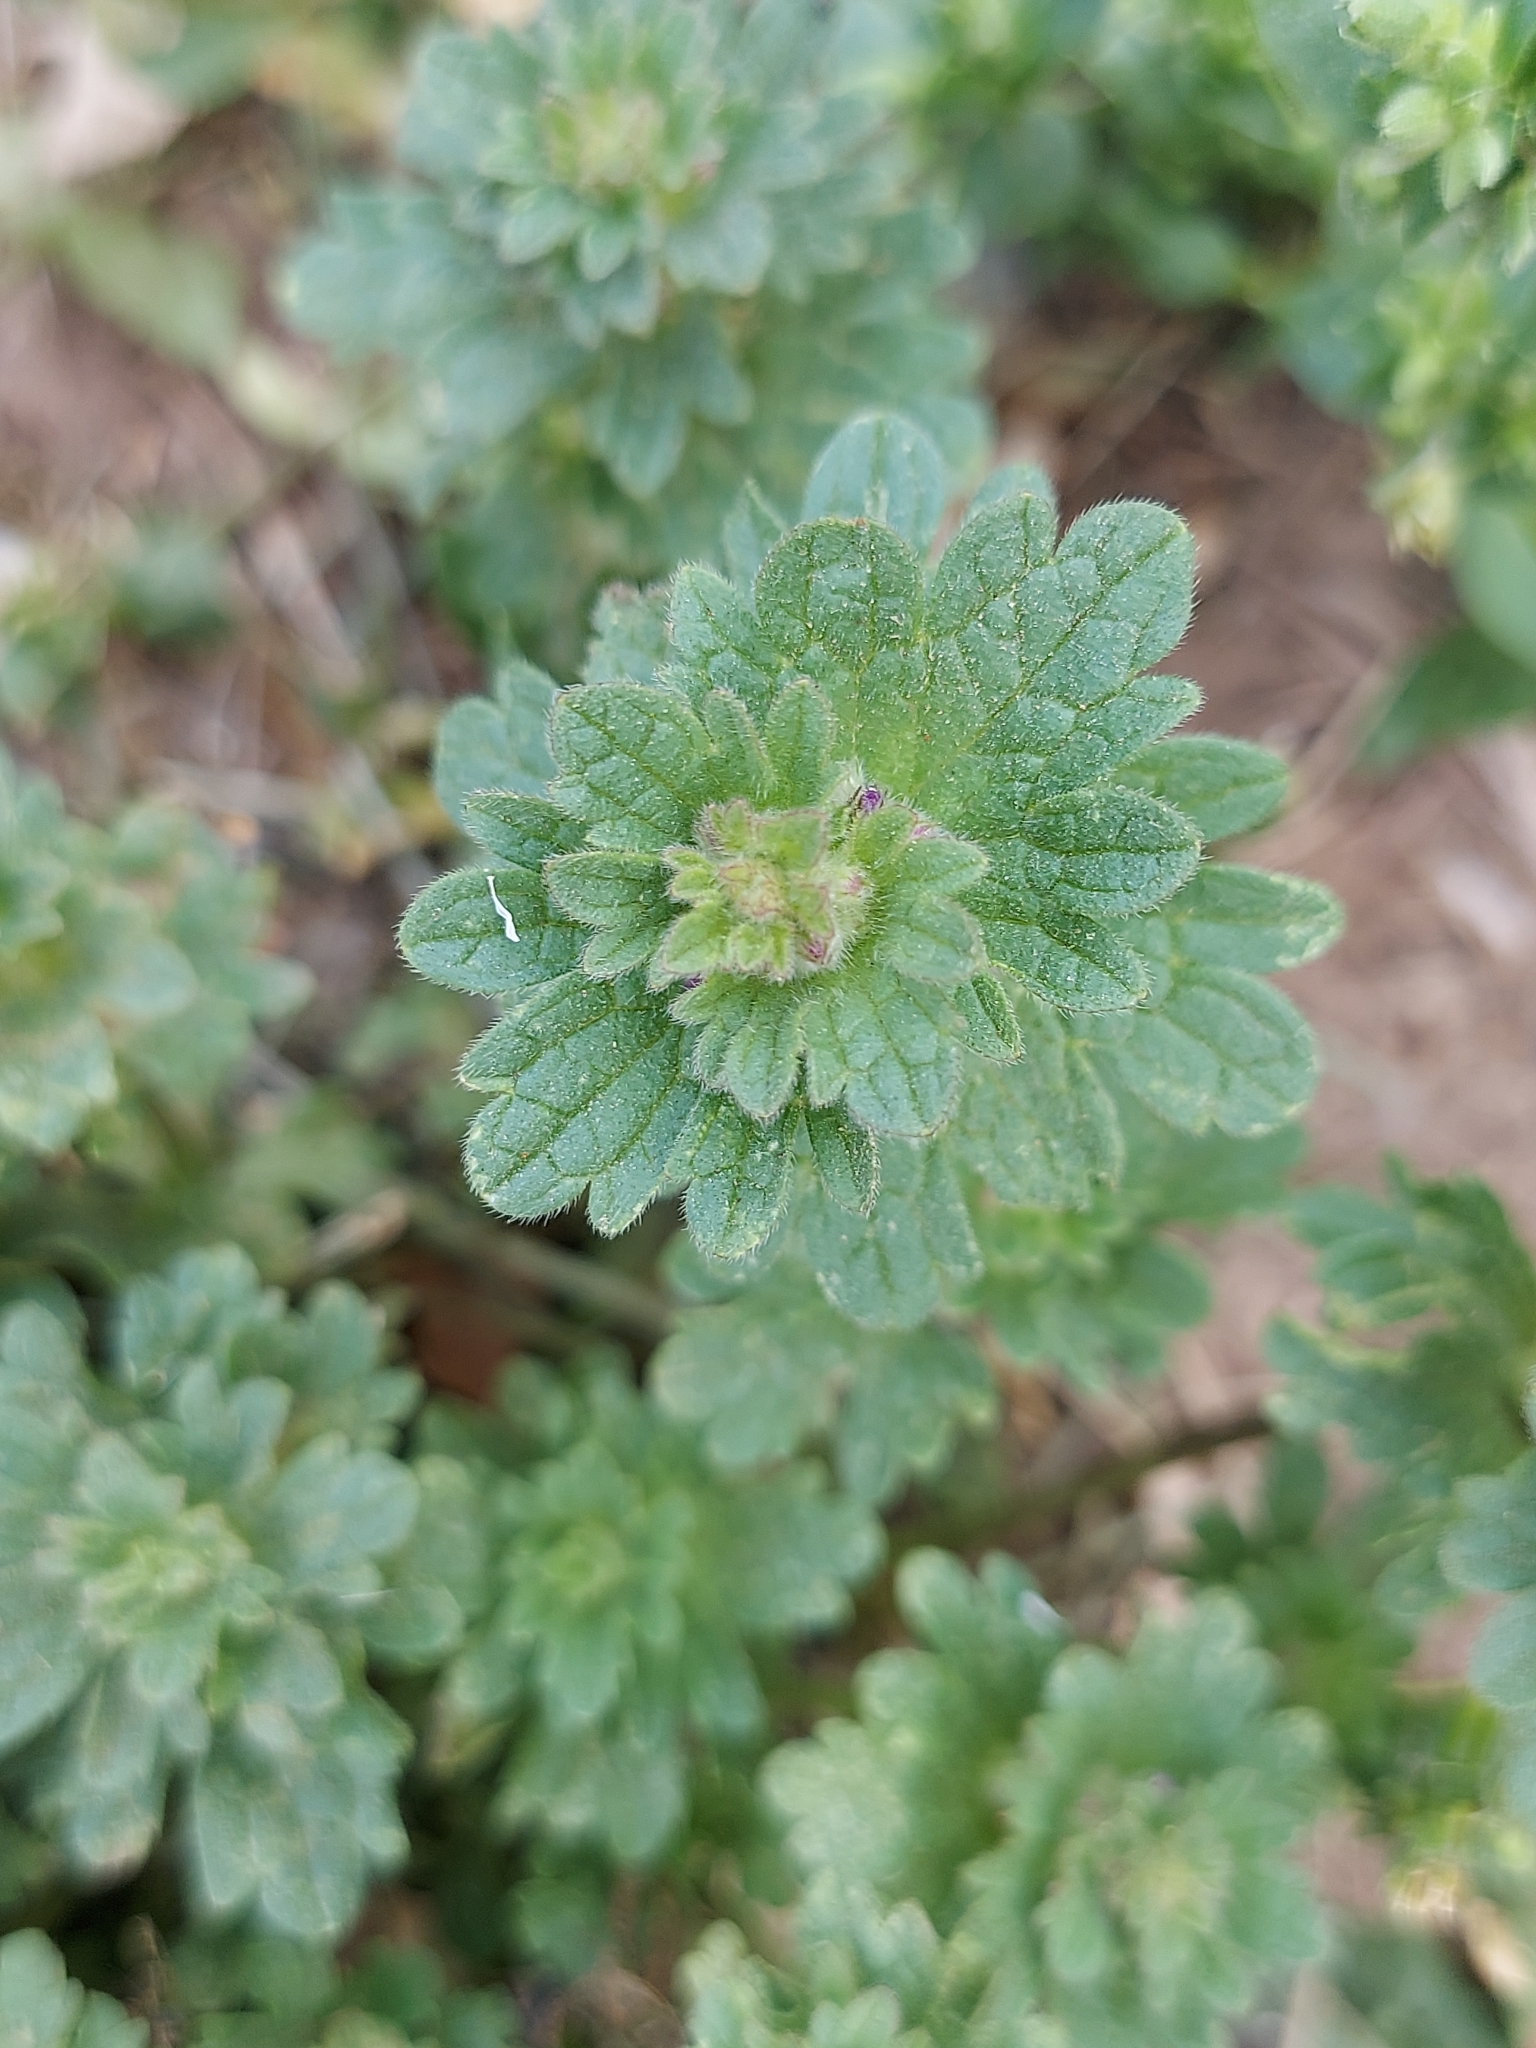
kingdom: Plantae
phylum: Tracheophyta
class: Magnoliopsida
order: Lamiales
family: Lamiaceae
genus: Lamium
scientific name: Lamium amplexicaule
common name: Henbit dead-nettle
